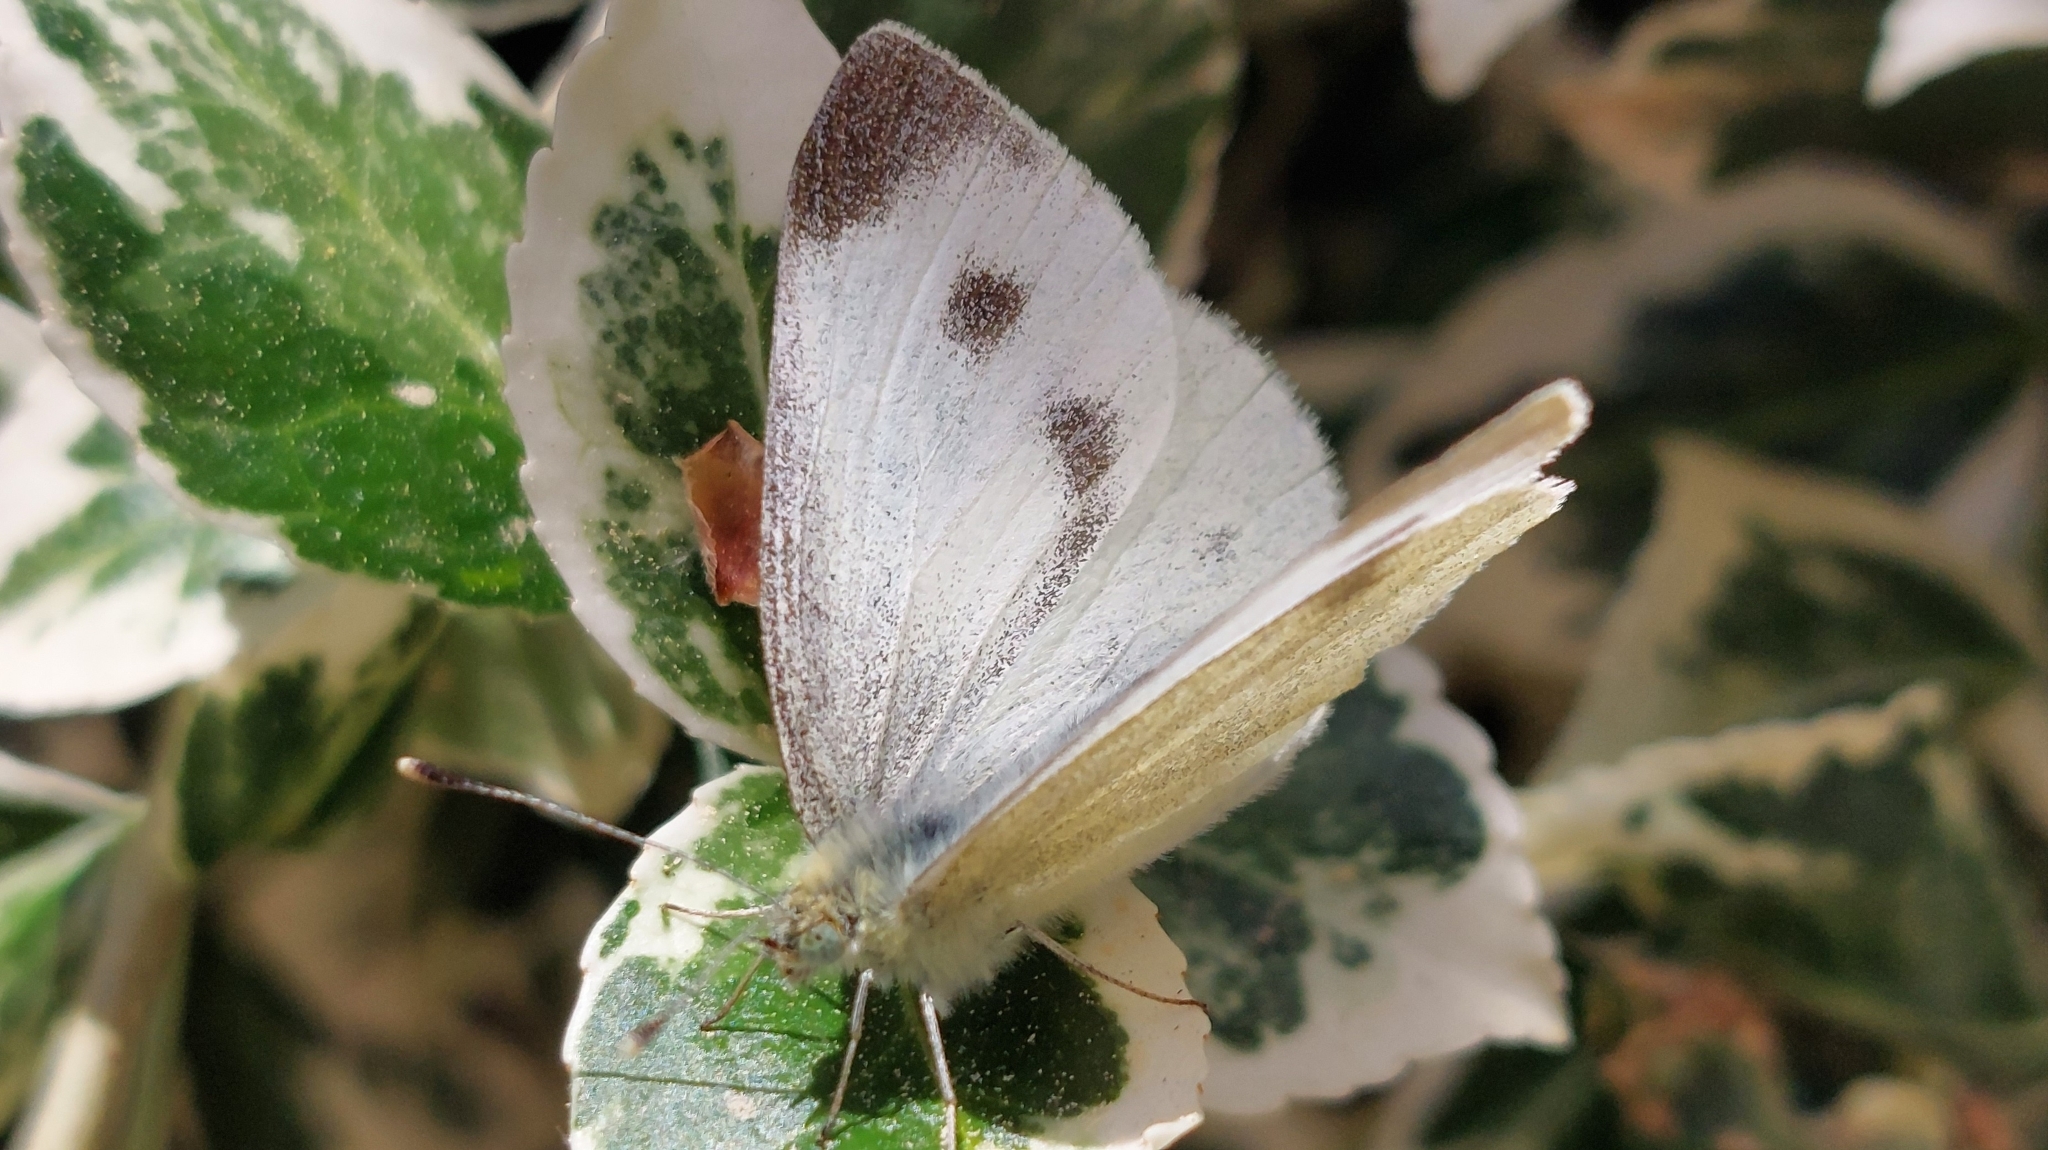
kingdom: Animalia
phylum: Arthropoda
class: Insecta
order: Lepidoptera
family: Pieridae
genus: Pieris
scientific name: Pieris mannii
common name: Southern small white
